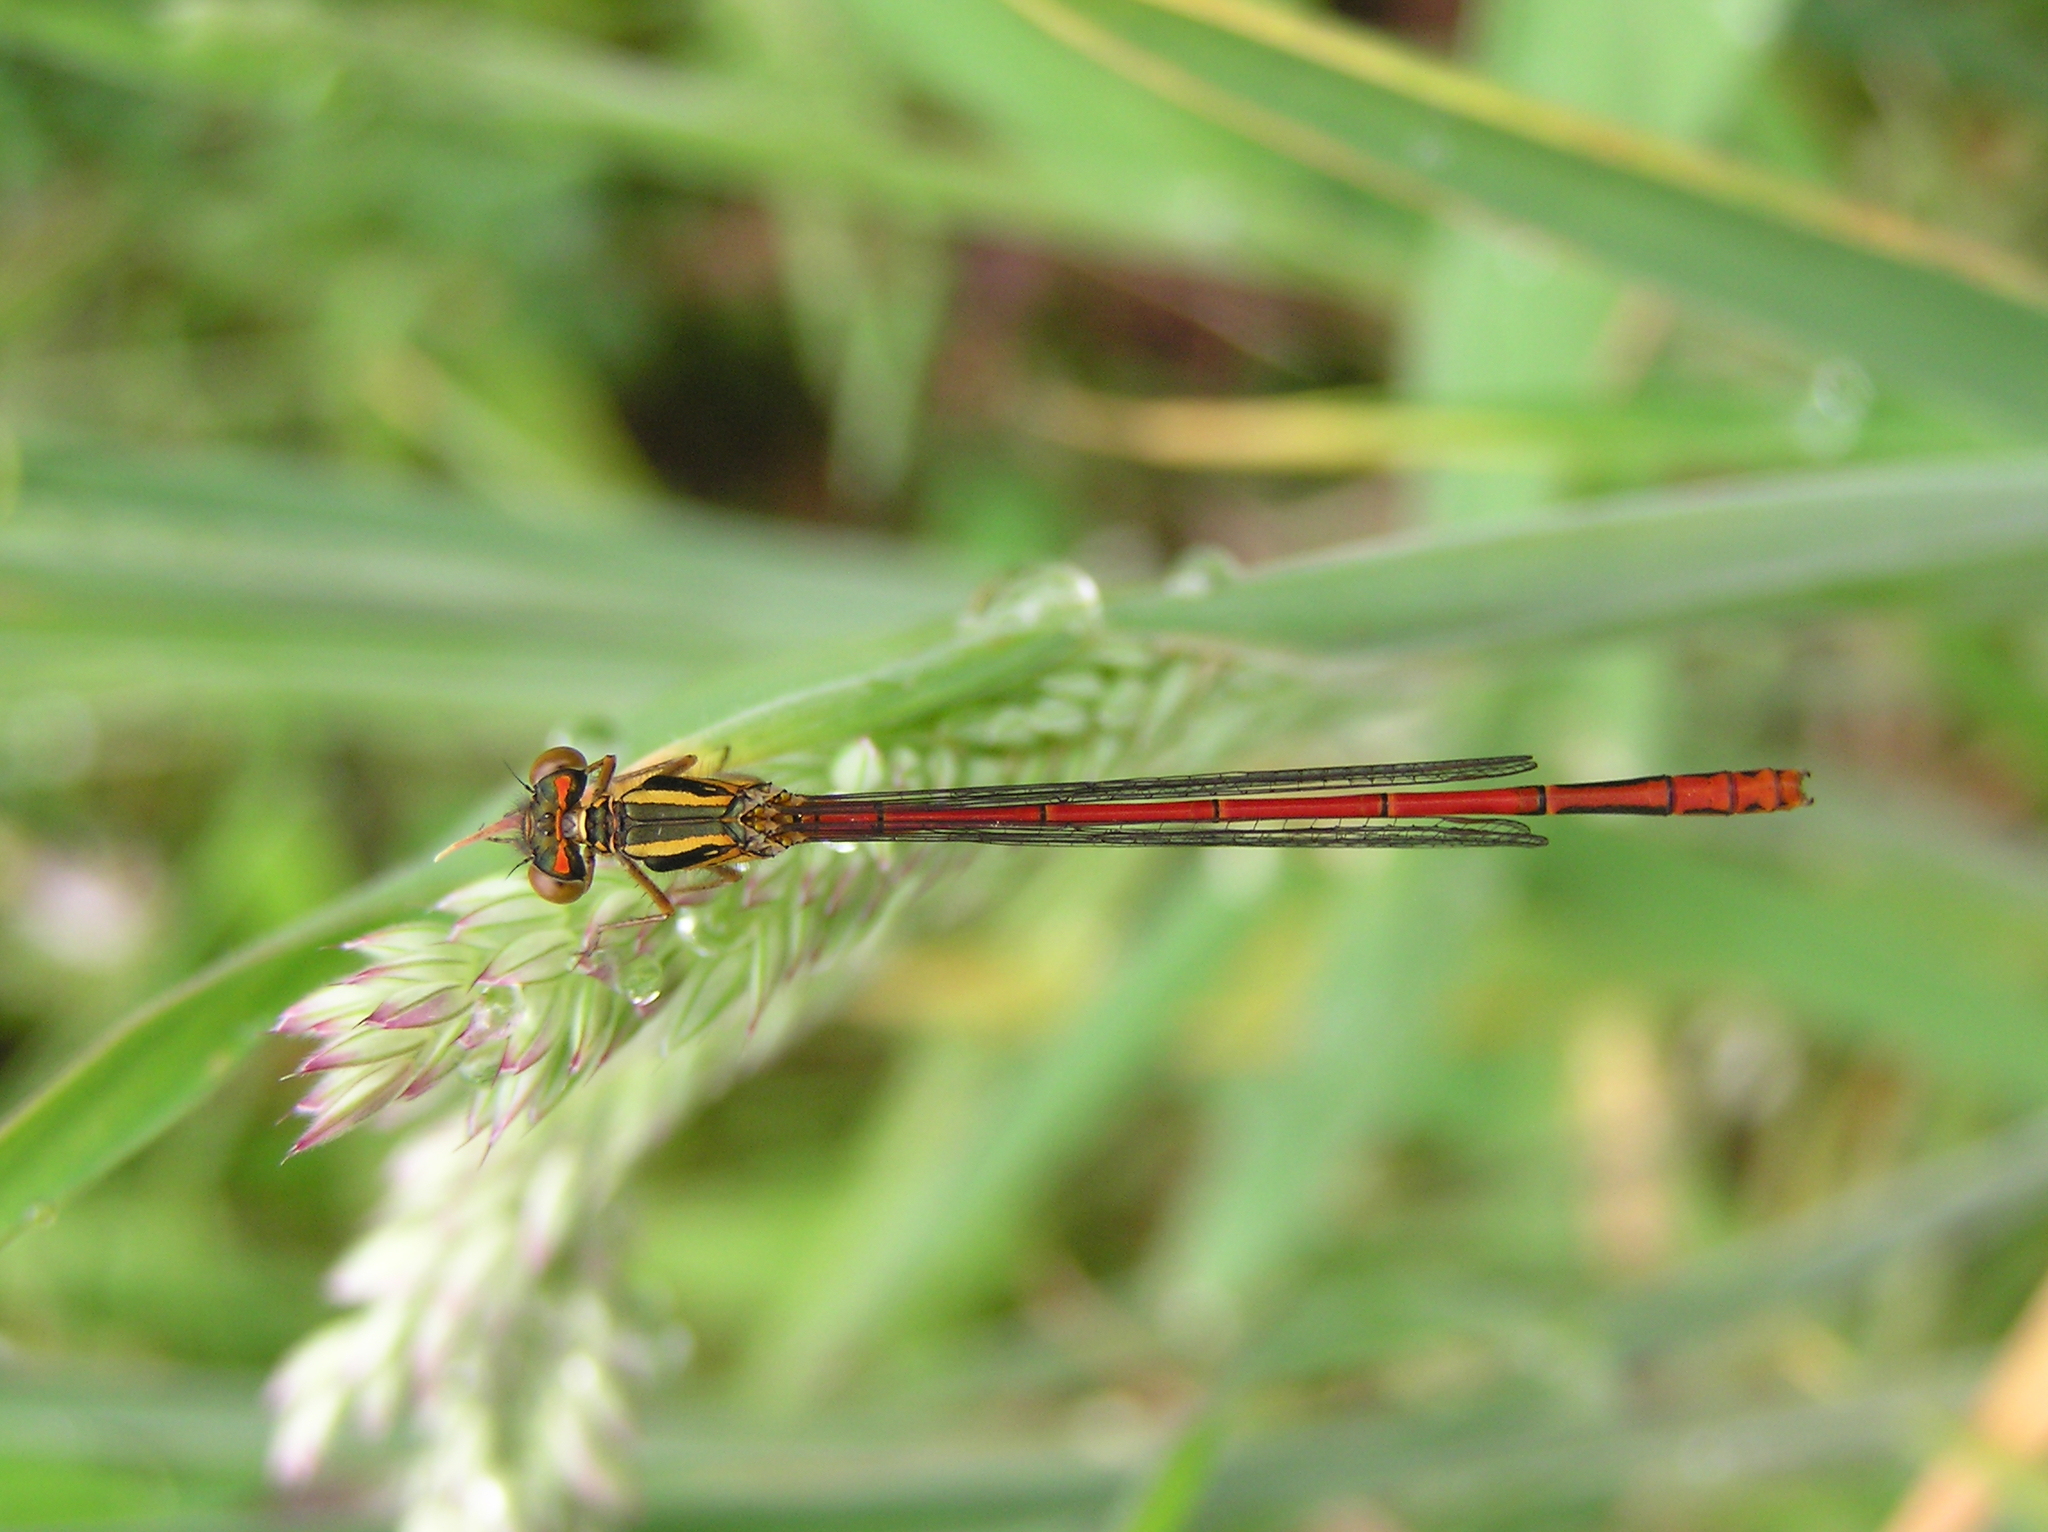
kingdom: Animalia
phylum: Arthropoda
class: Insecta
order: Odonata
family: Coenagrionidae
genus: Xanthocnemis
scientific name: Xanthocnemis zealandica
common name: Common redcoat damselfly
